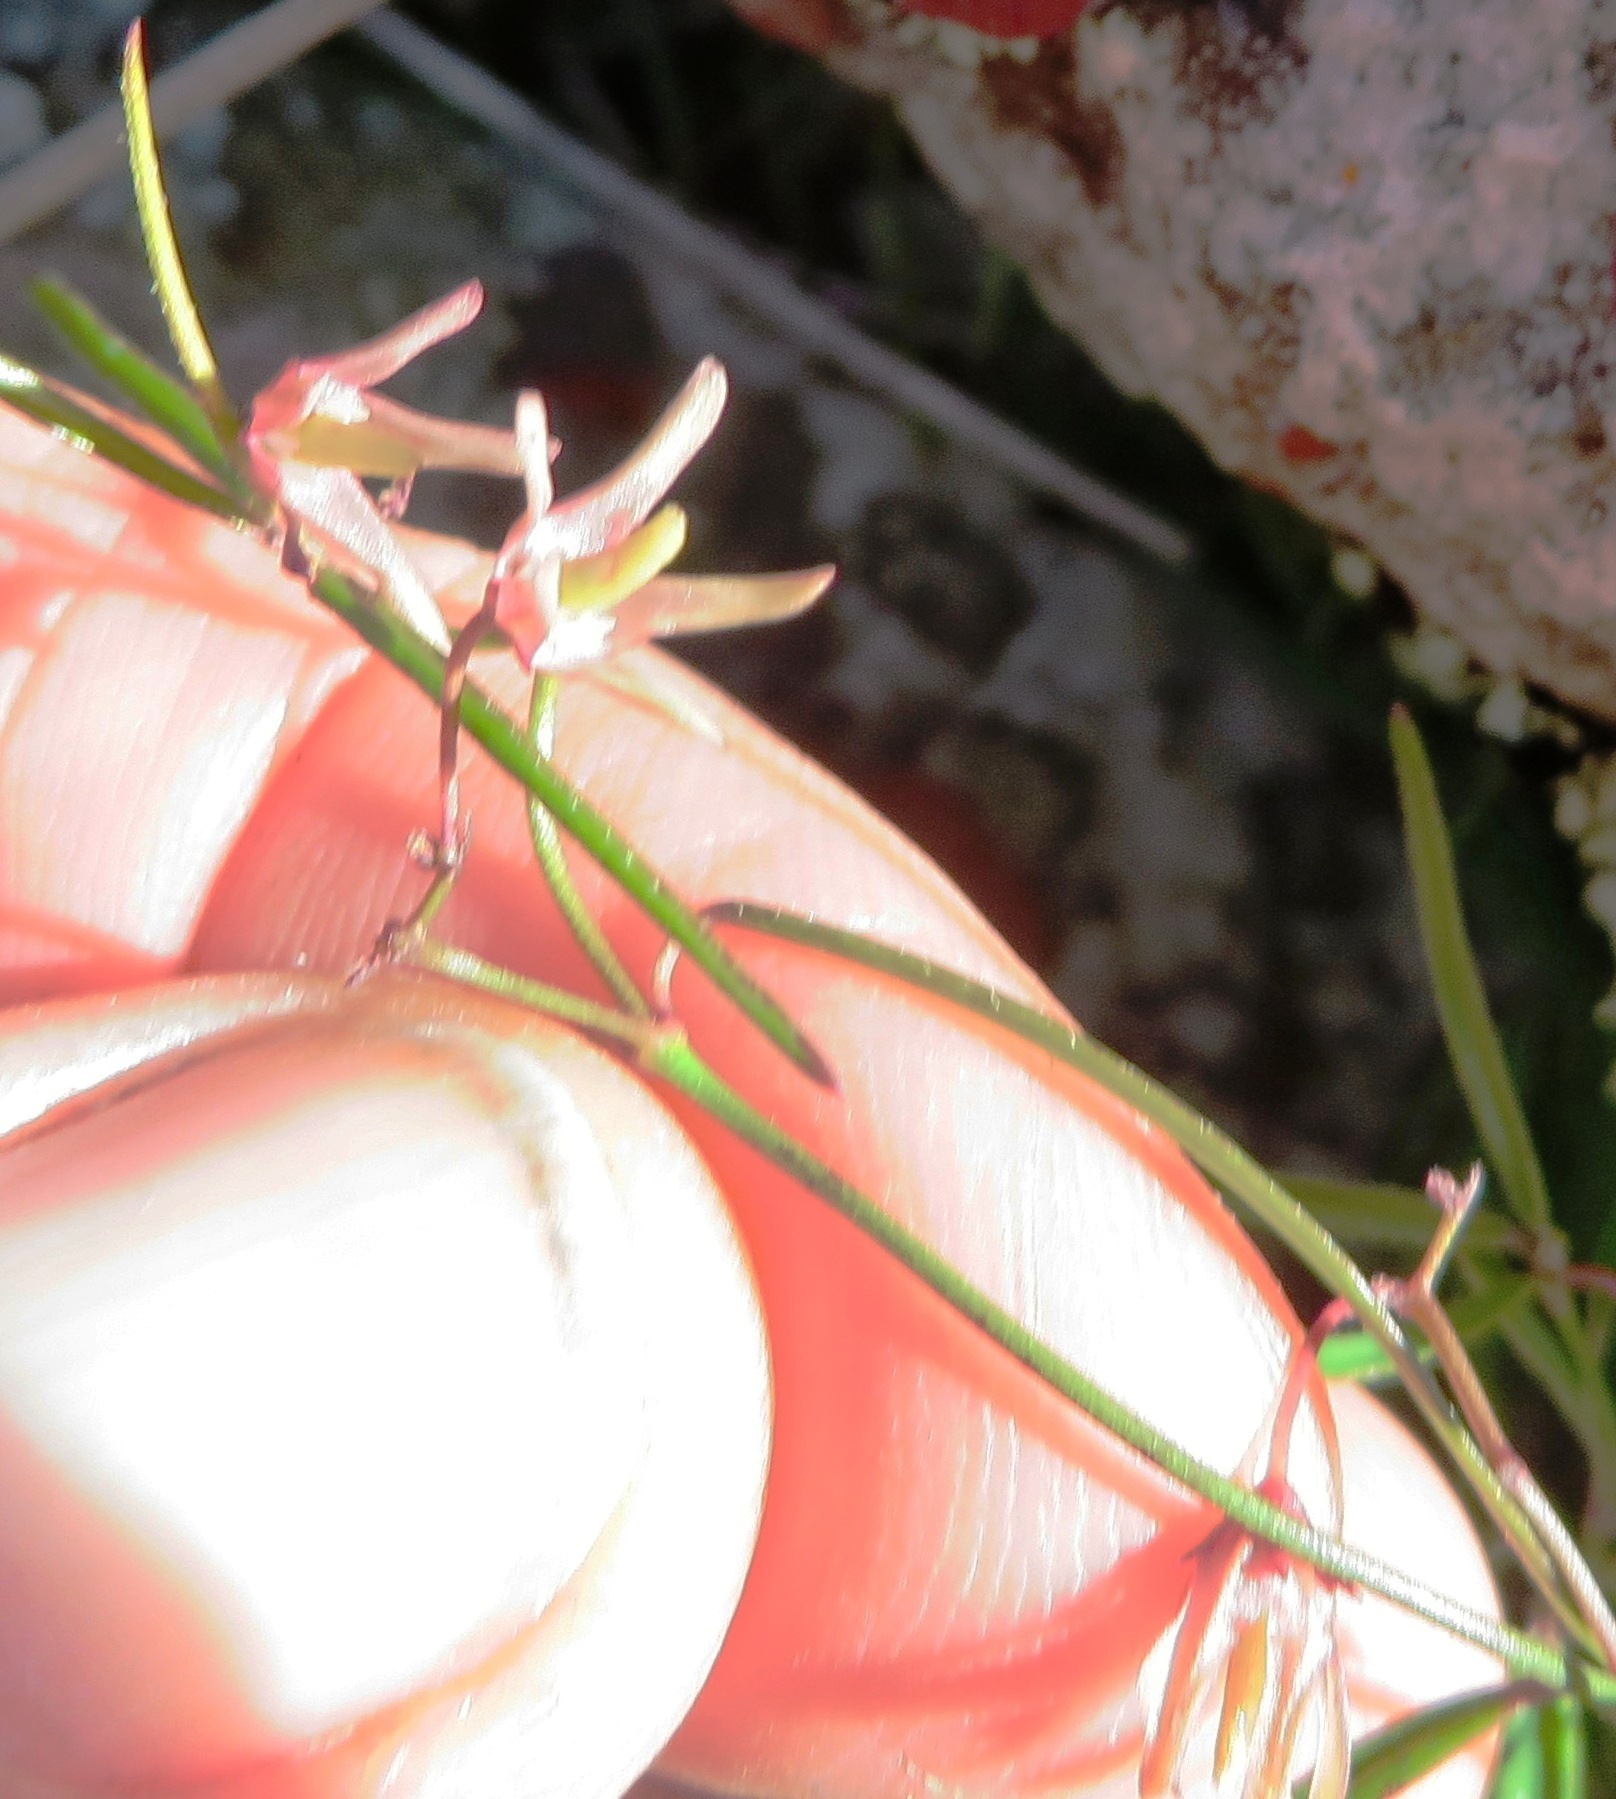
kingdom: Plantae
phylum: Tracheophyta
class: Magnoliopsida
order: Gentianales
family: Apocynaceae
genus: Oncinema
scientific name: Oncinema lineare
